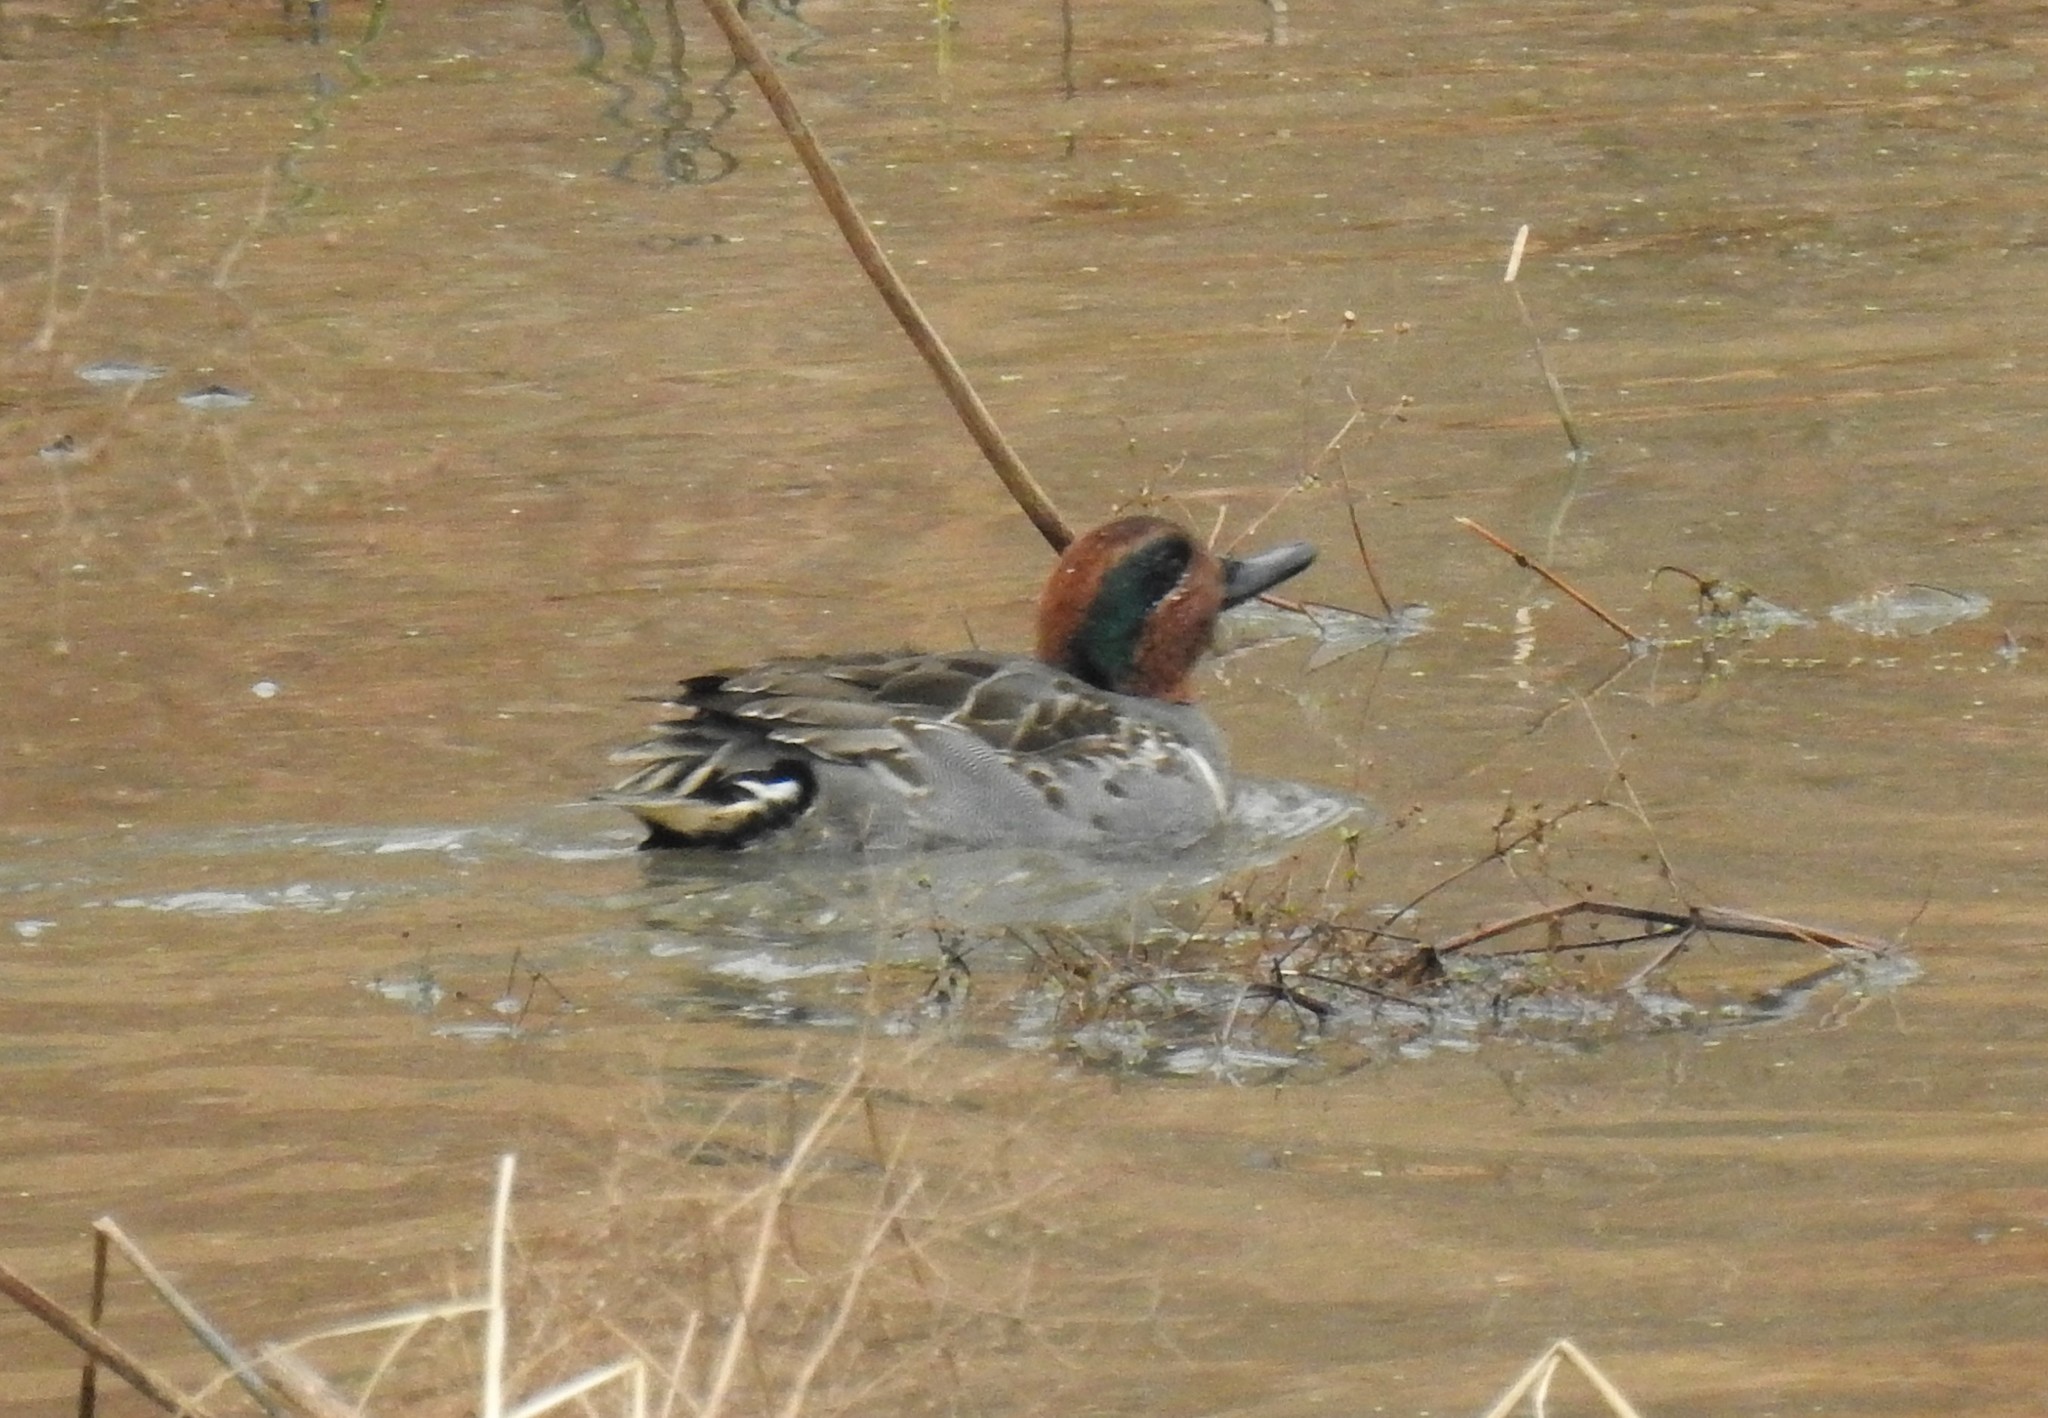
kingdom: Animalia
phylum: Chordata
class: Aves
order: Anseriformes
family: Anatidae
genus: Anas
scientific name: Anas crecca
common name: Eurasian teal
